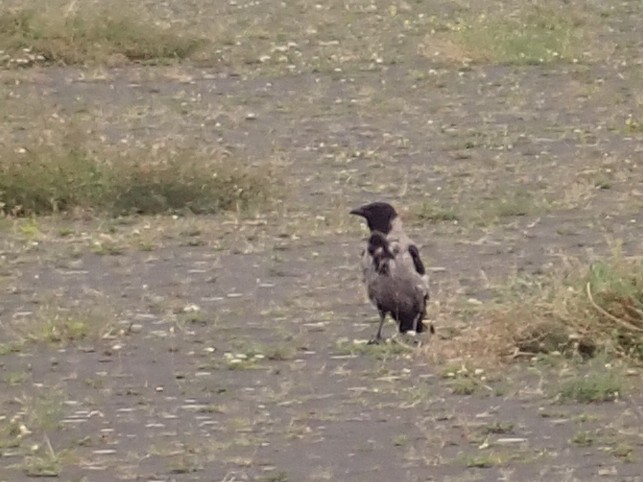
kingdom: Animalia
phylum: Chordata
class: Aves
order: Passeriformes
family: Corvidae
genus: Corvus
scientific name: Corvus cornix
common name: Hooded crow
